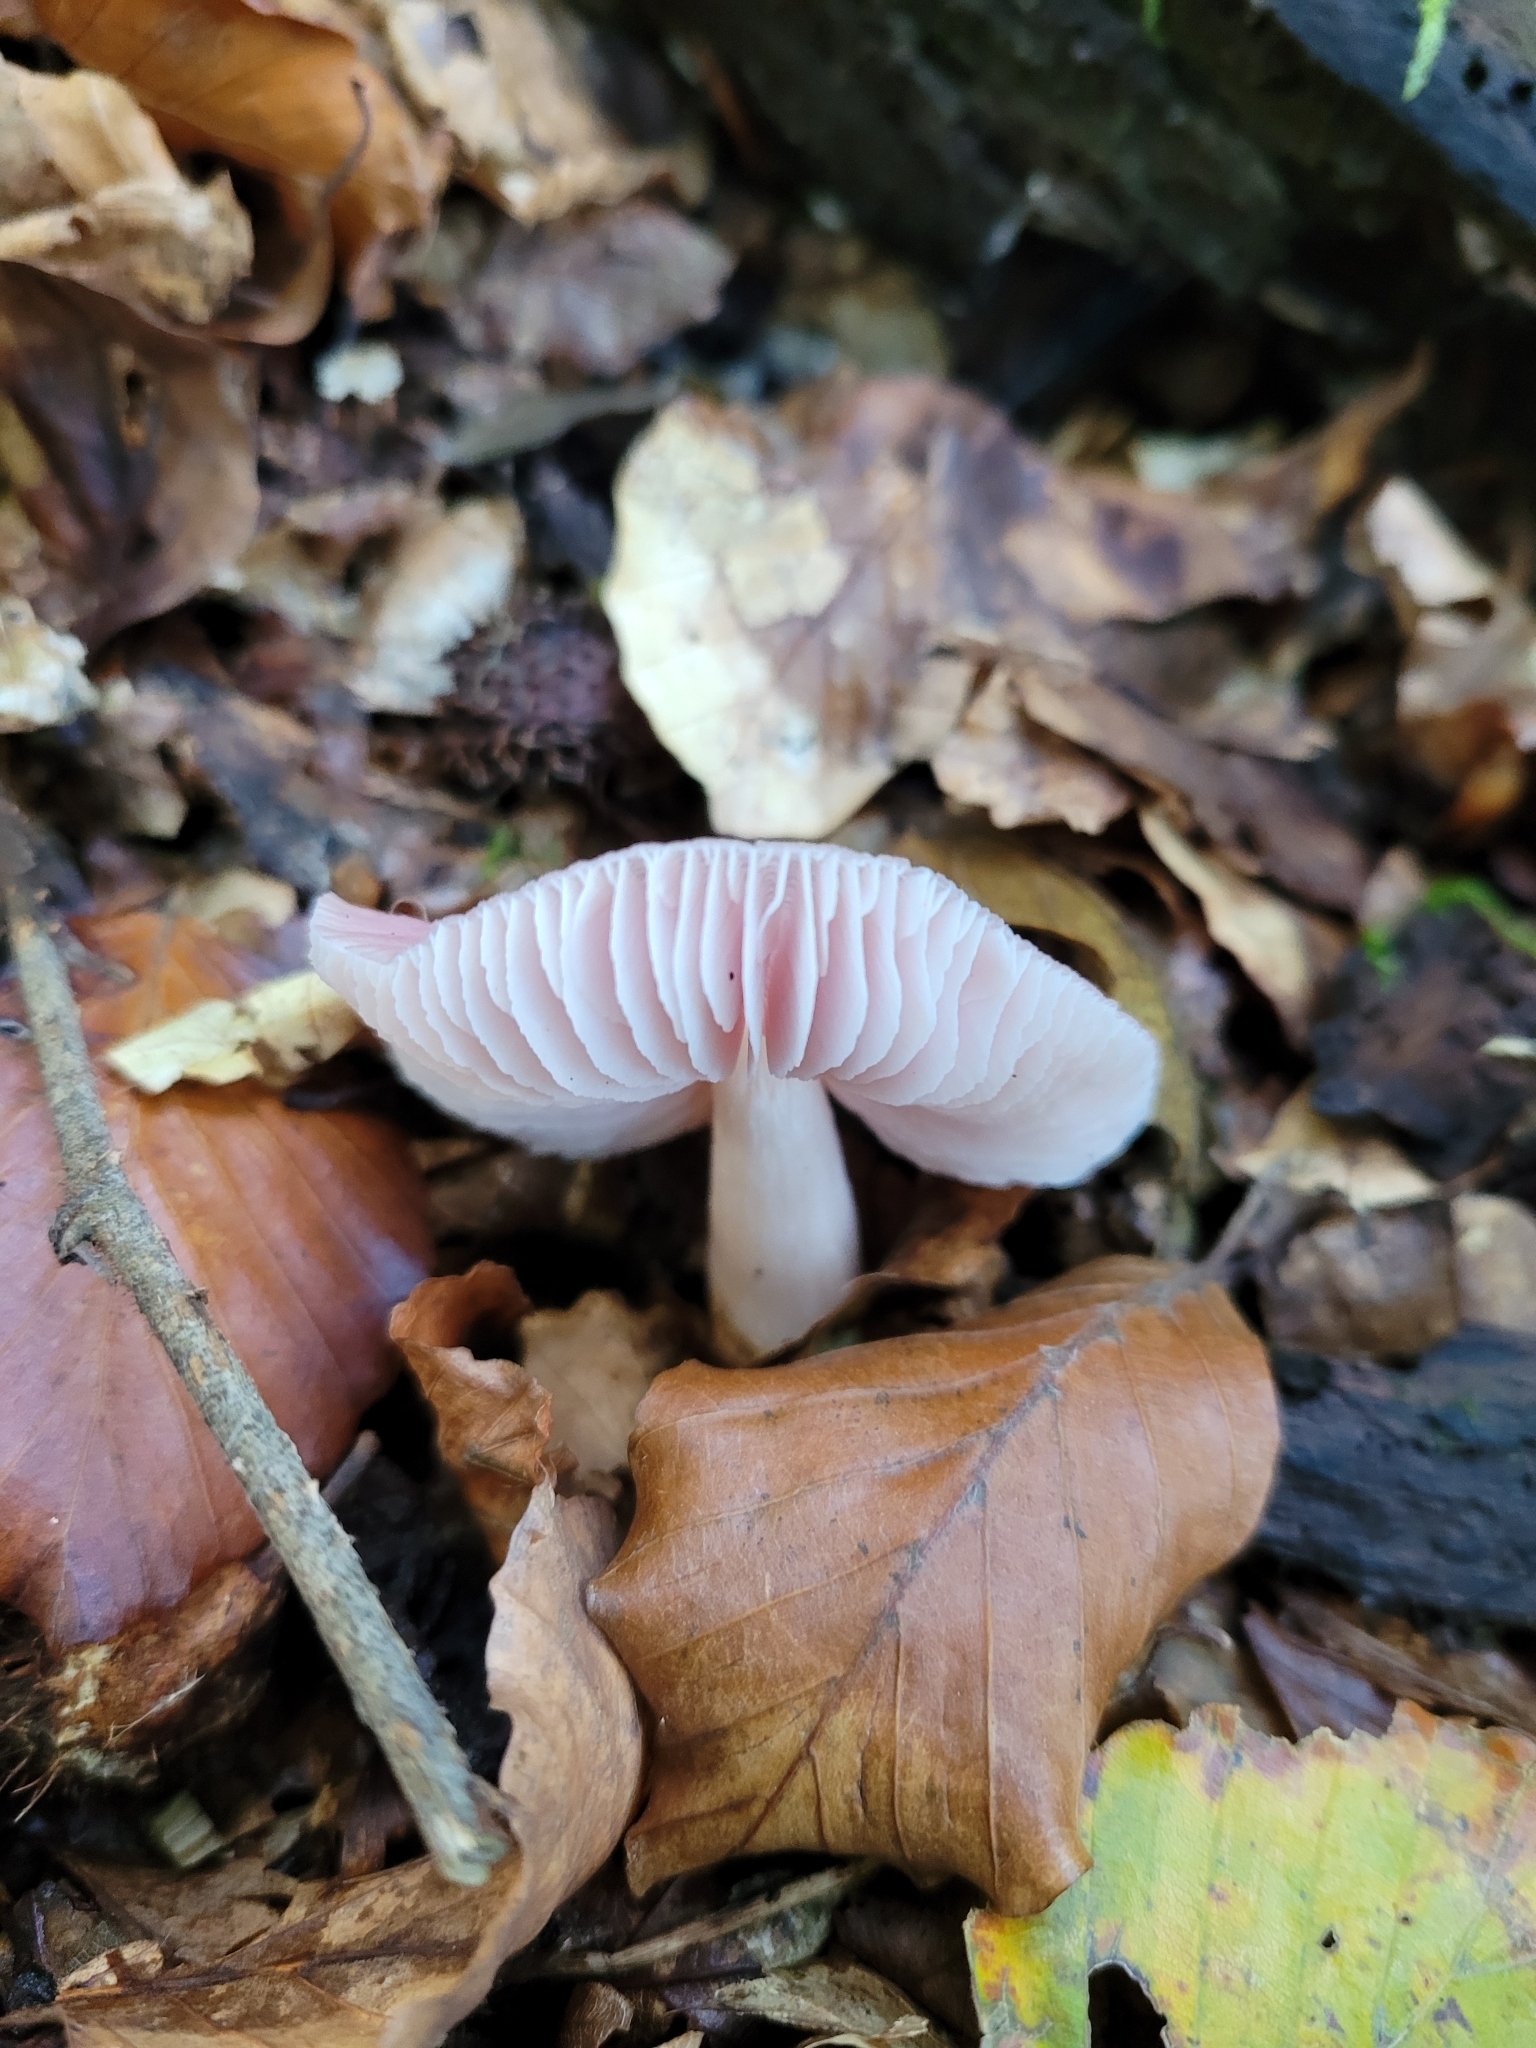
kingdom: Fungi
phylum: Basidiomycota
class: Agaricomycetes
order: Agaricales
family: Mycenaceae
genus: Mycena
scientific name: Mycena rosea
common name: Rosy bonnet
